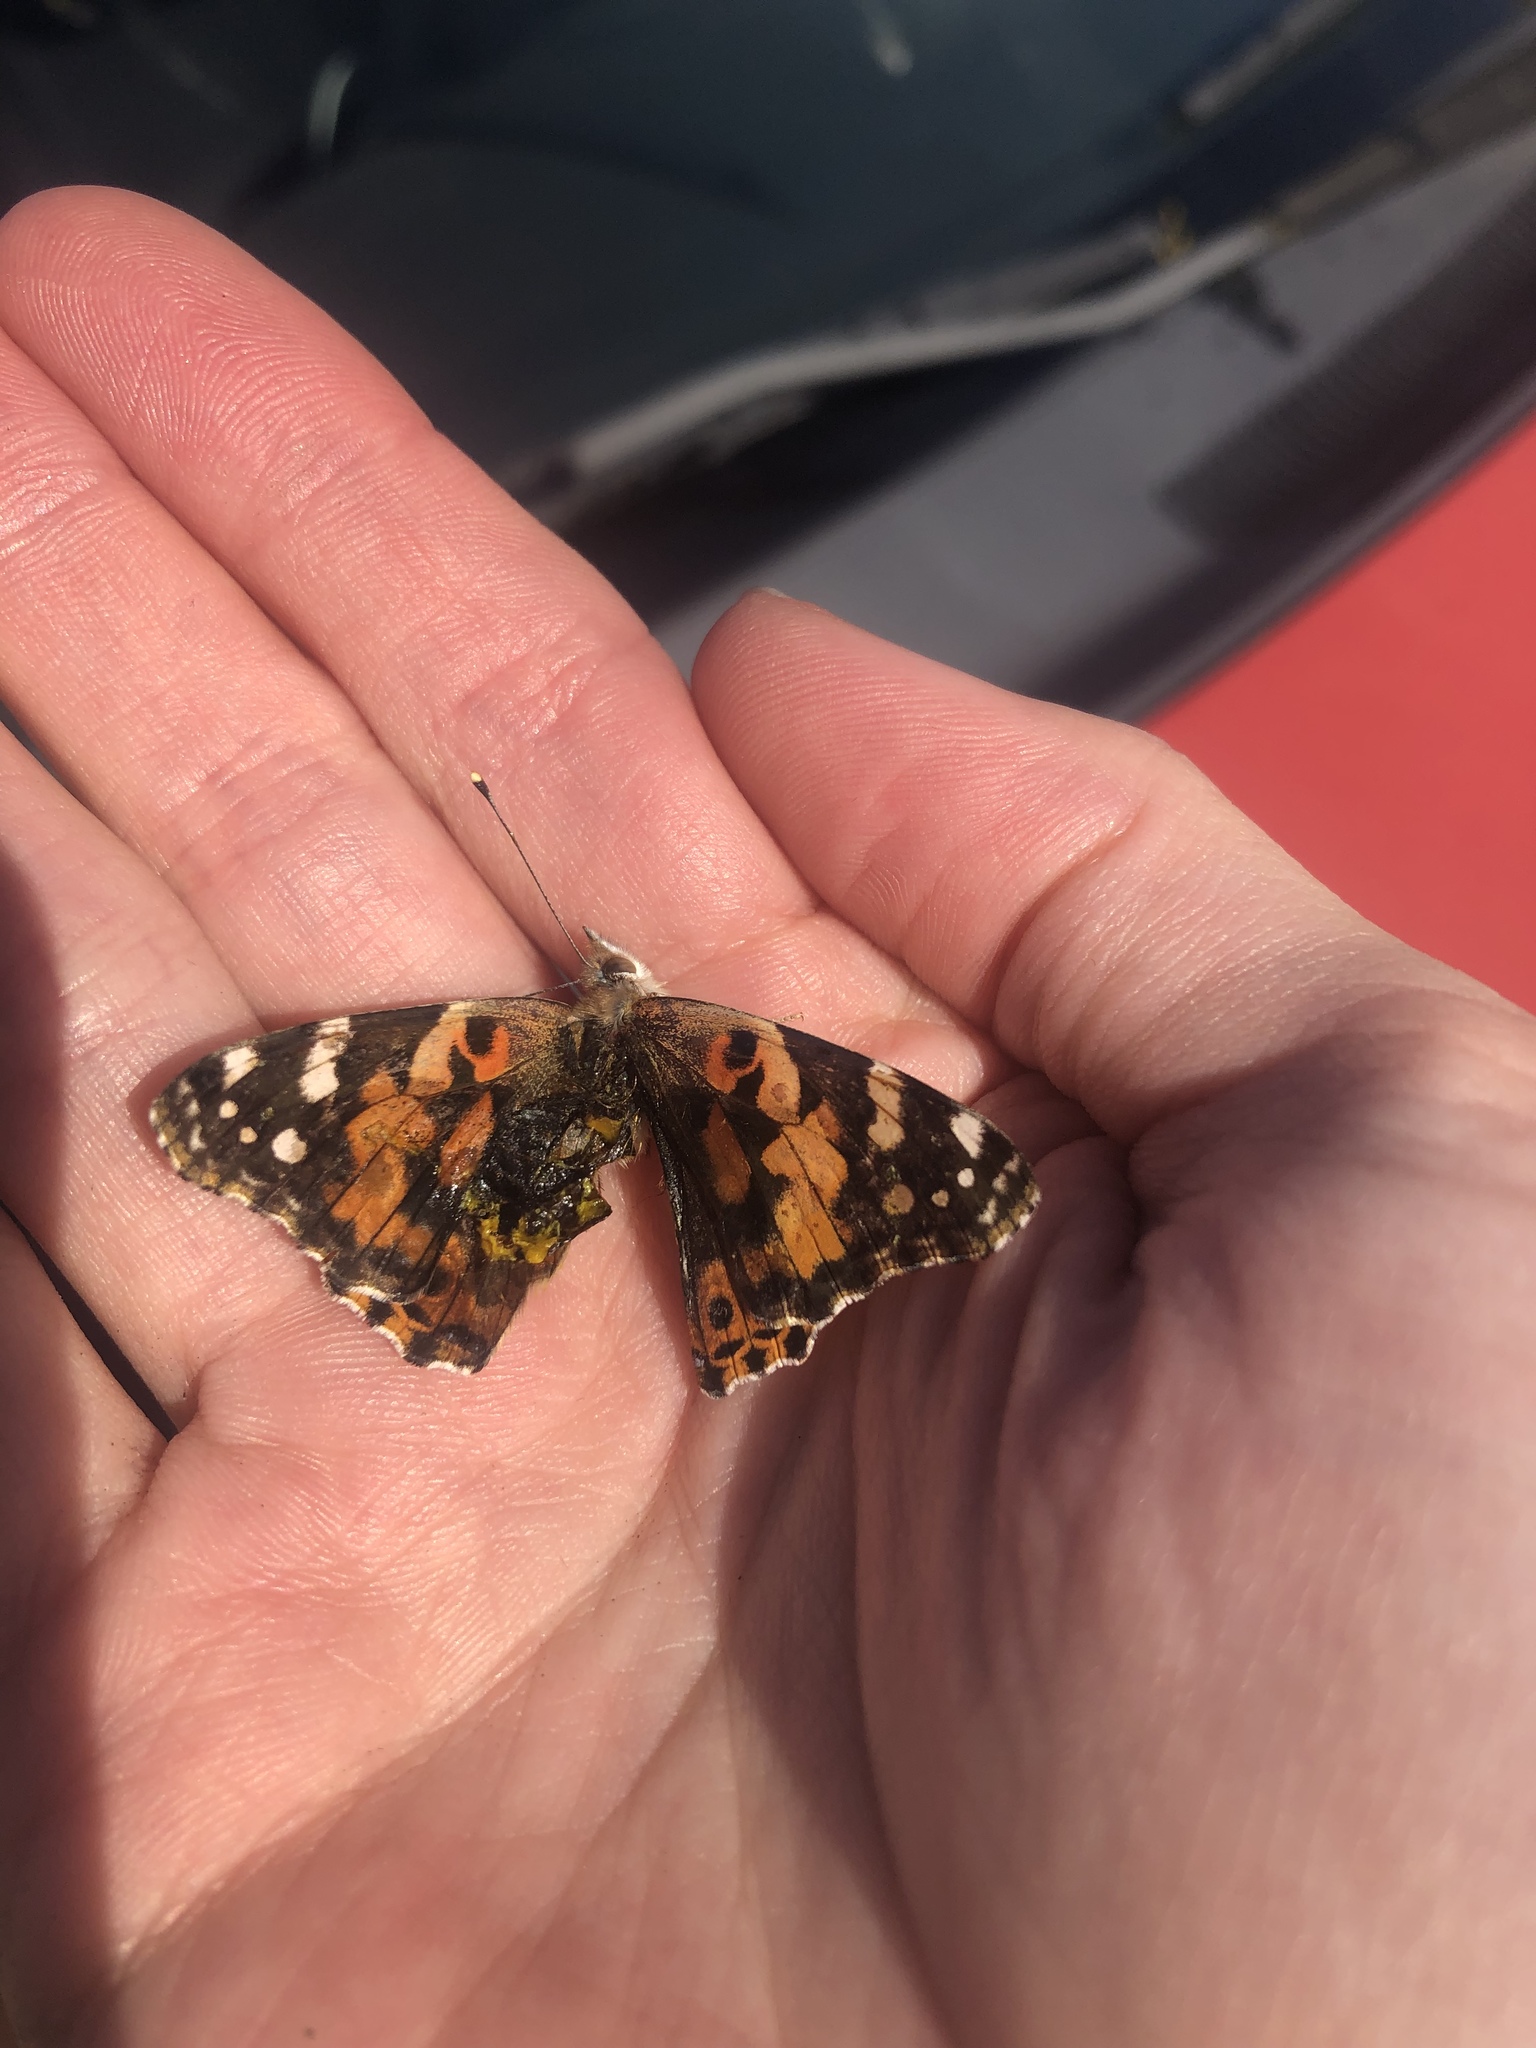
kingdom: Animalia
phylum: Arthropoda
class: Insecta
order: Lepidoptera
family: Nymphalidae
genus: Vanessa
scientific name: Vanessa cardui
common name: Painted lady
